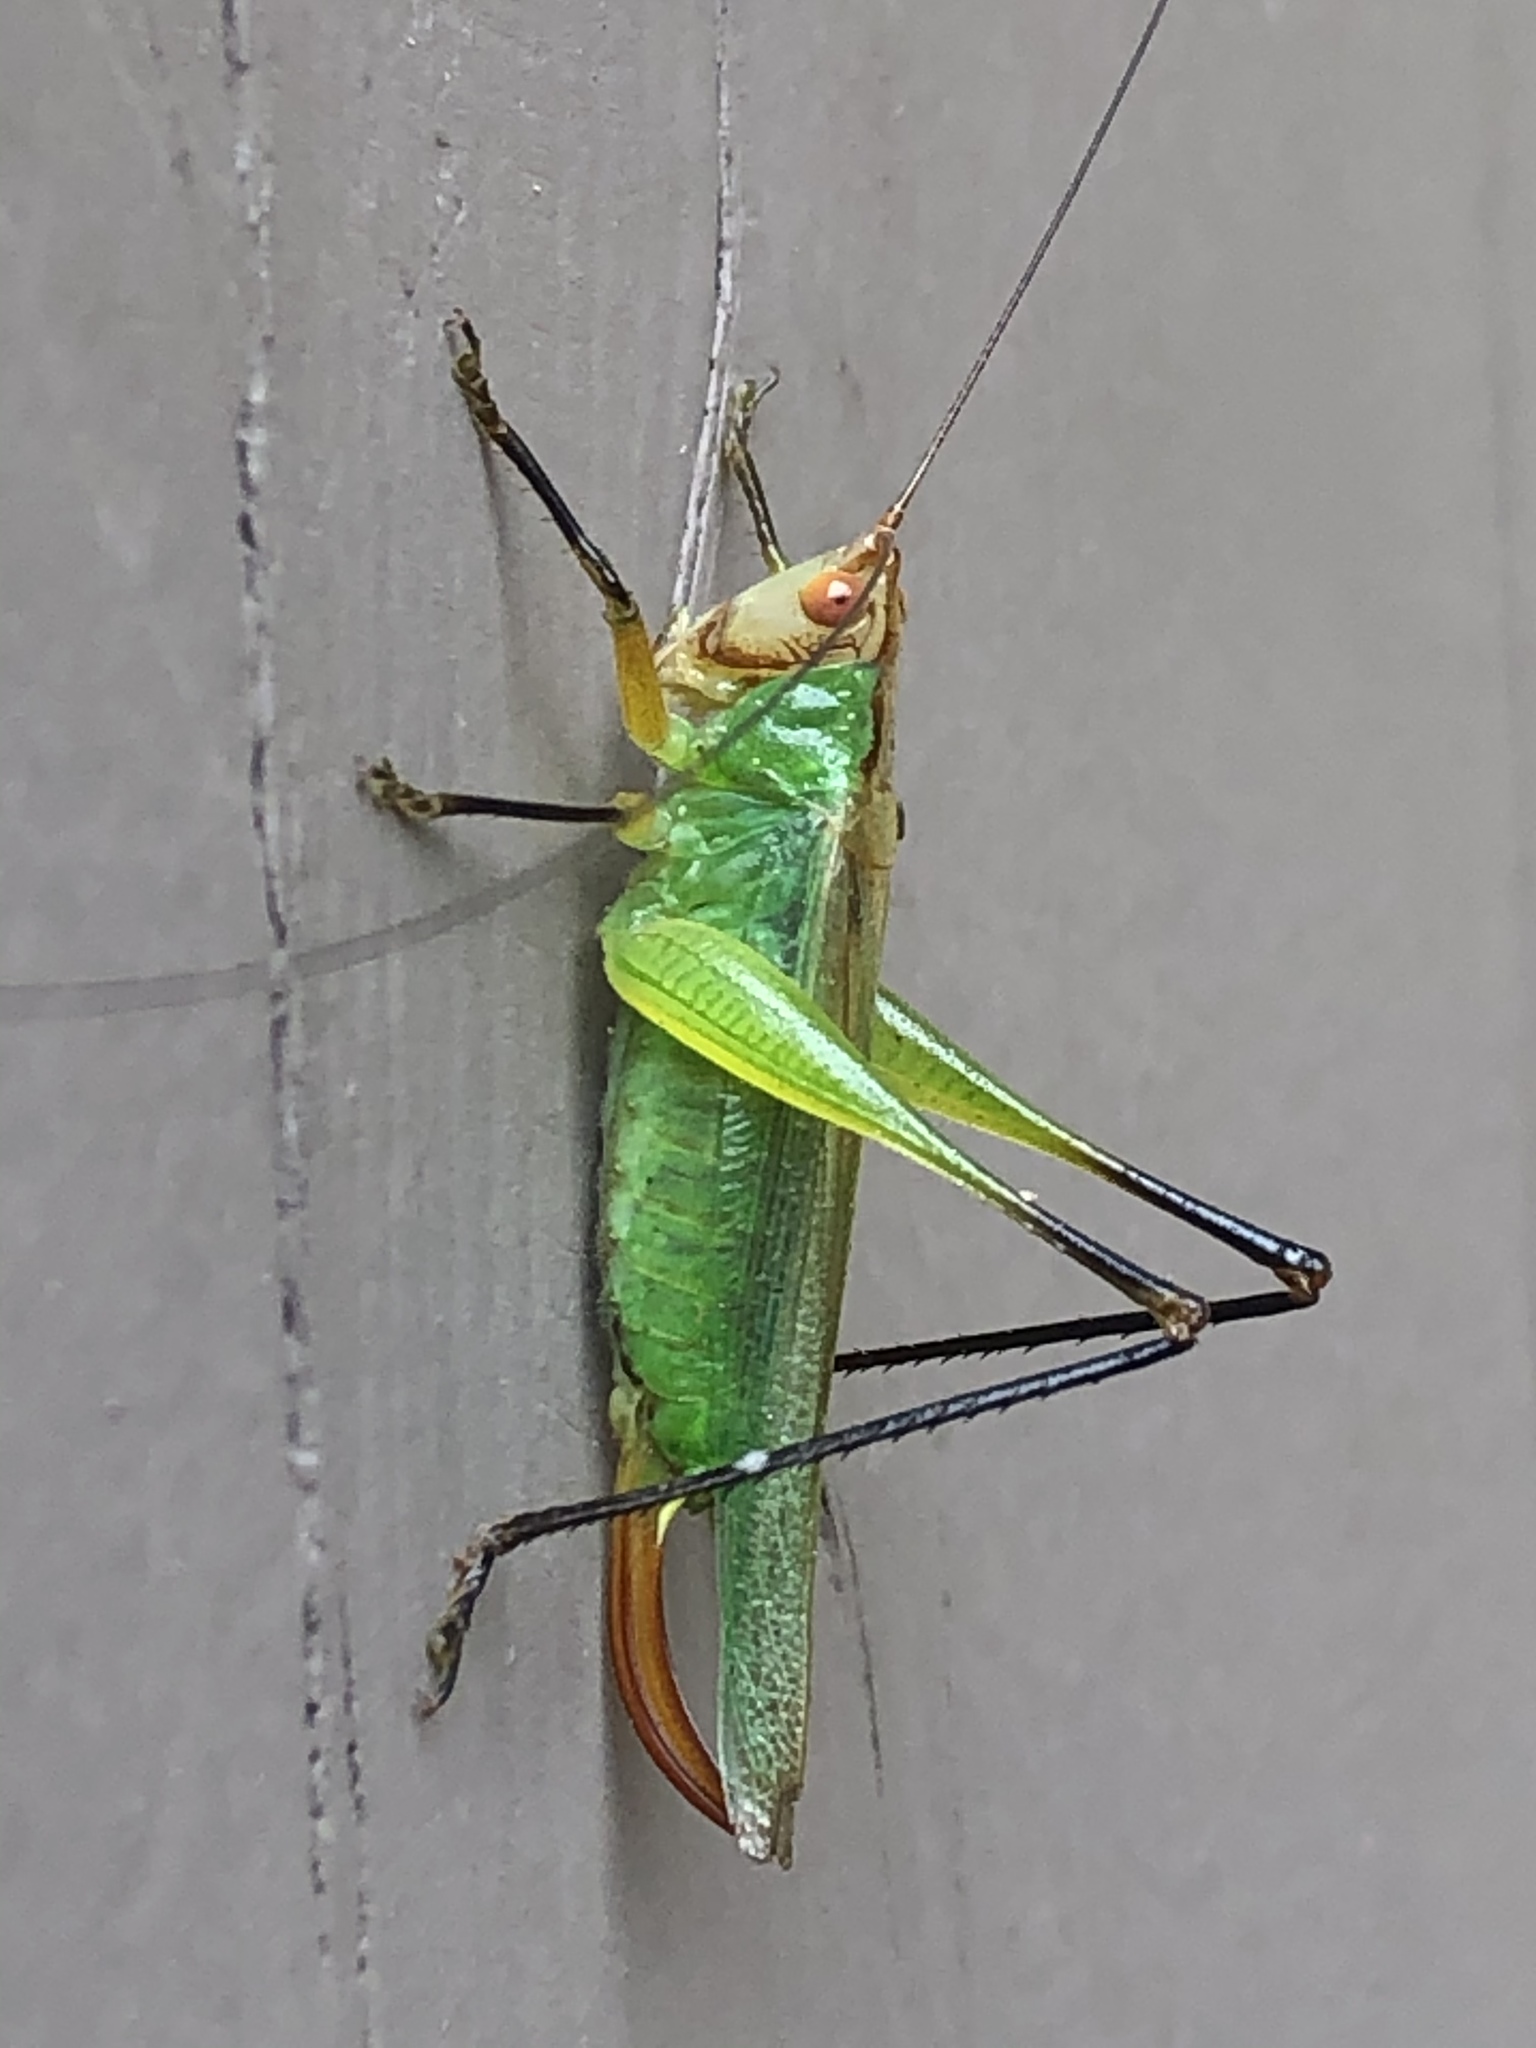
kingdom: Animalia
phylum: Arthropoda
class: Insecta
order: Orthoptera
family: Tettigoniidae
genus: Orchelimum
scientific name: Orchelimum nigripes
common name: Black-legged meadow katydid
